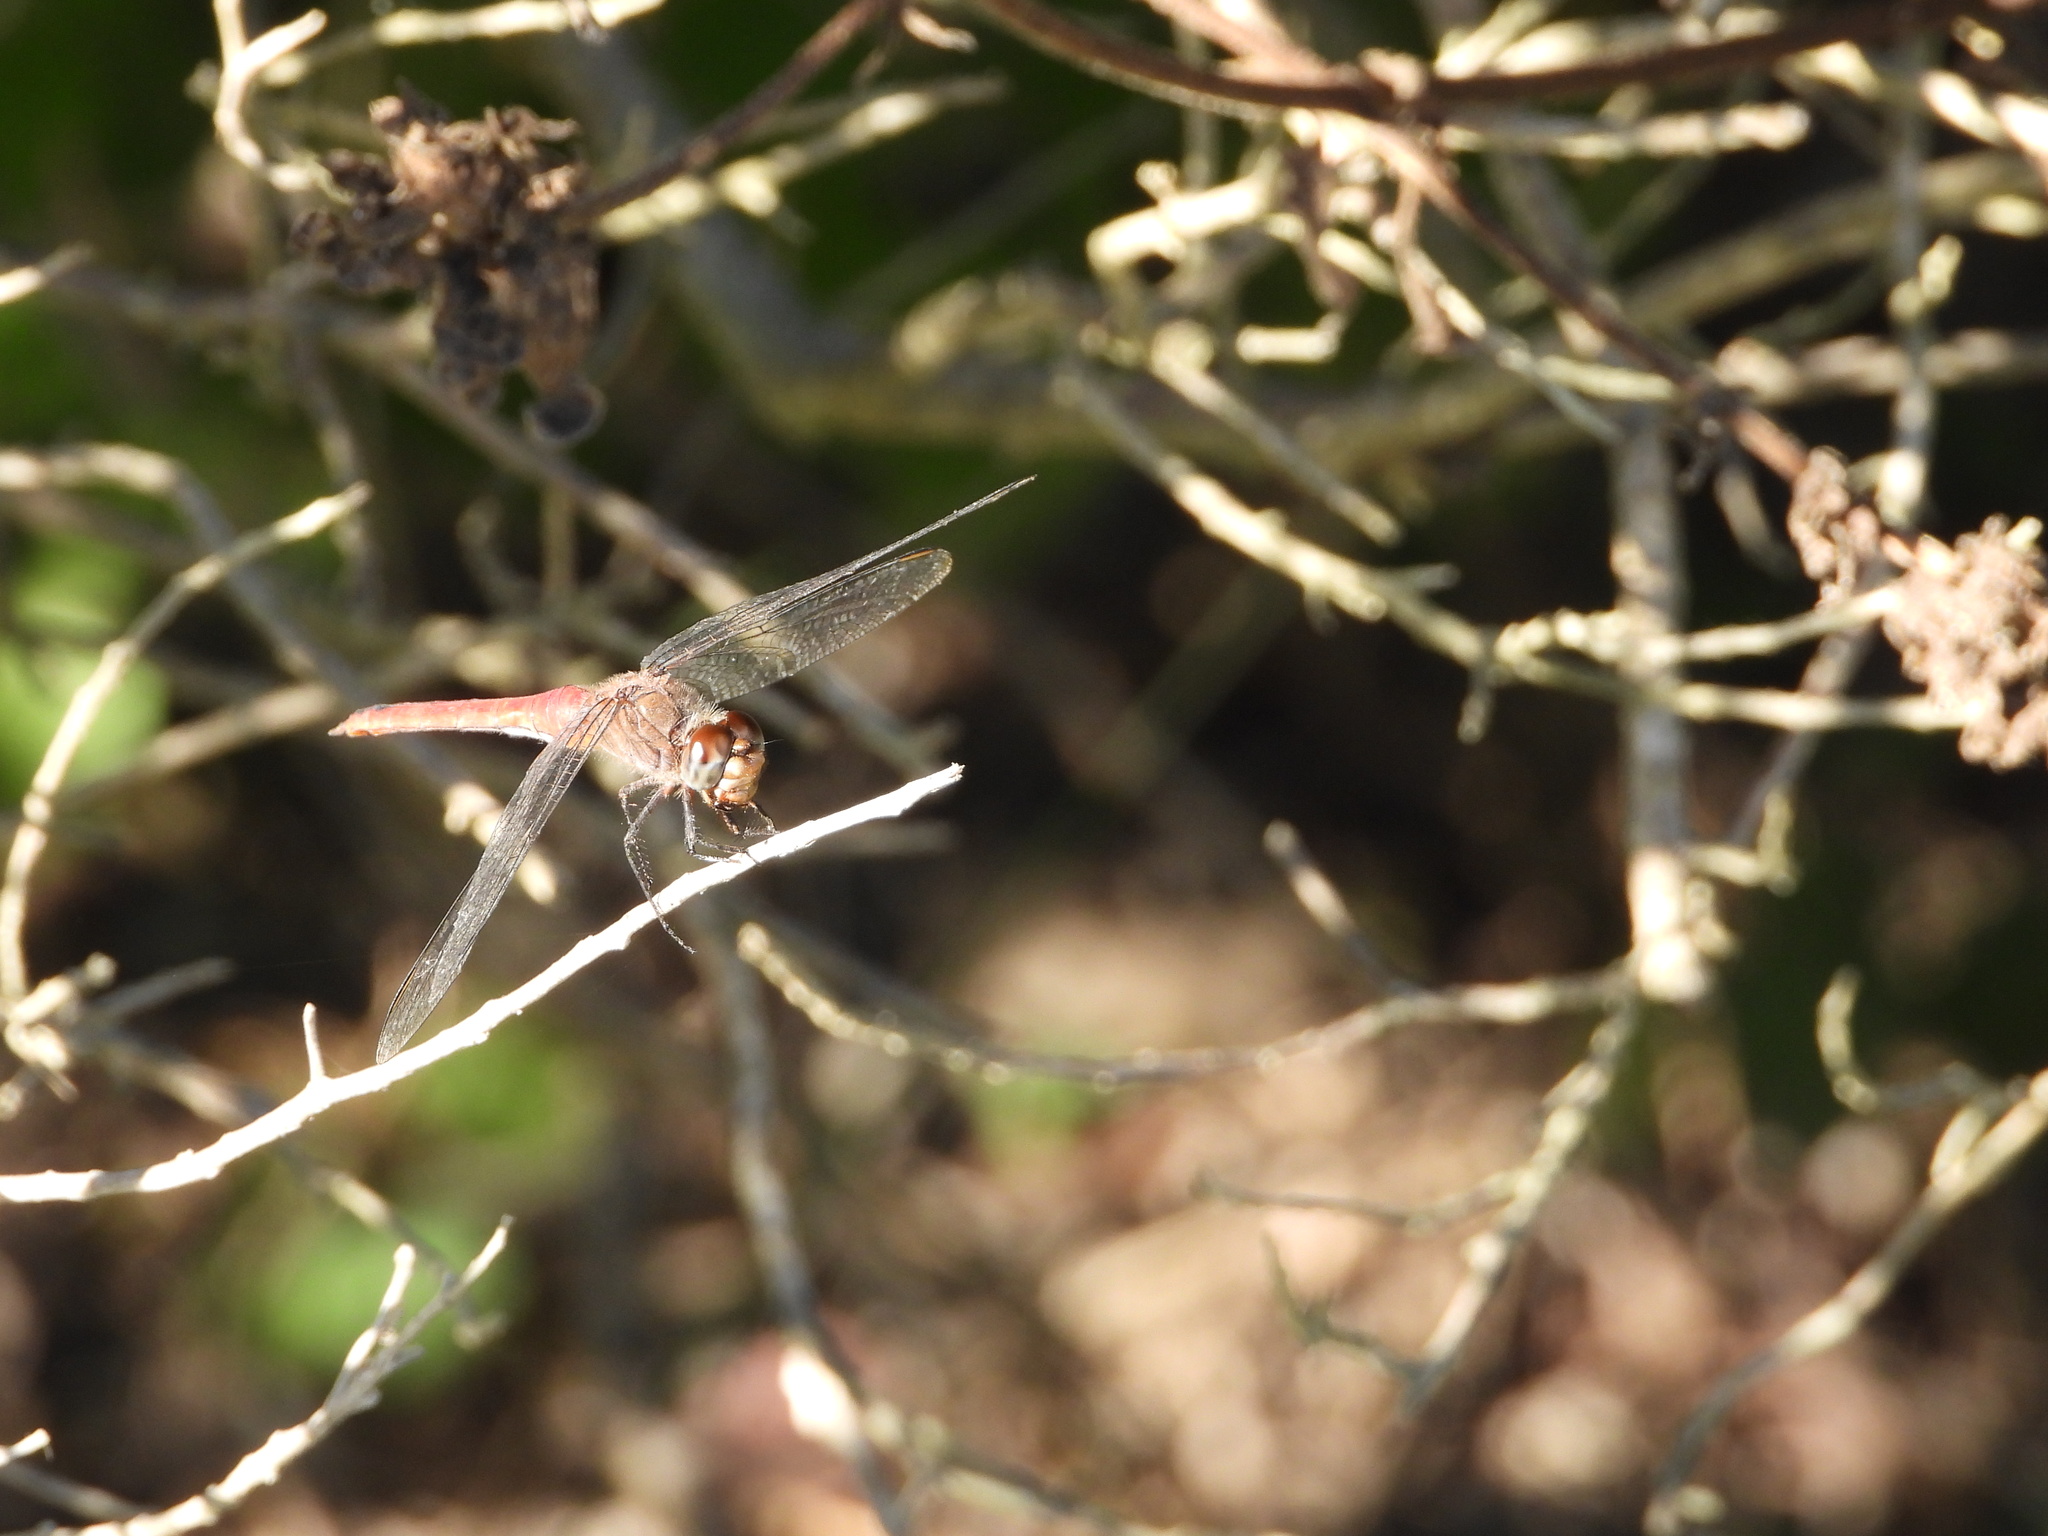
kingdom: Animalia
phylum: Arthropoda
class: Insecta
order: Odonata
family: Libellulidae
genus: Brachymesia
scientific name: Brachymesia furcata
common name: Red-taled pennant
